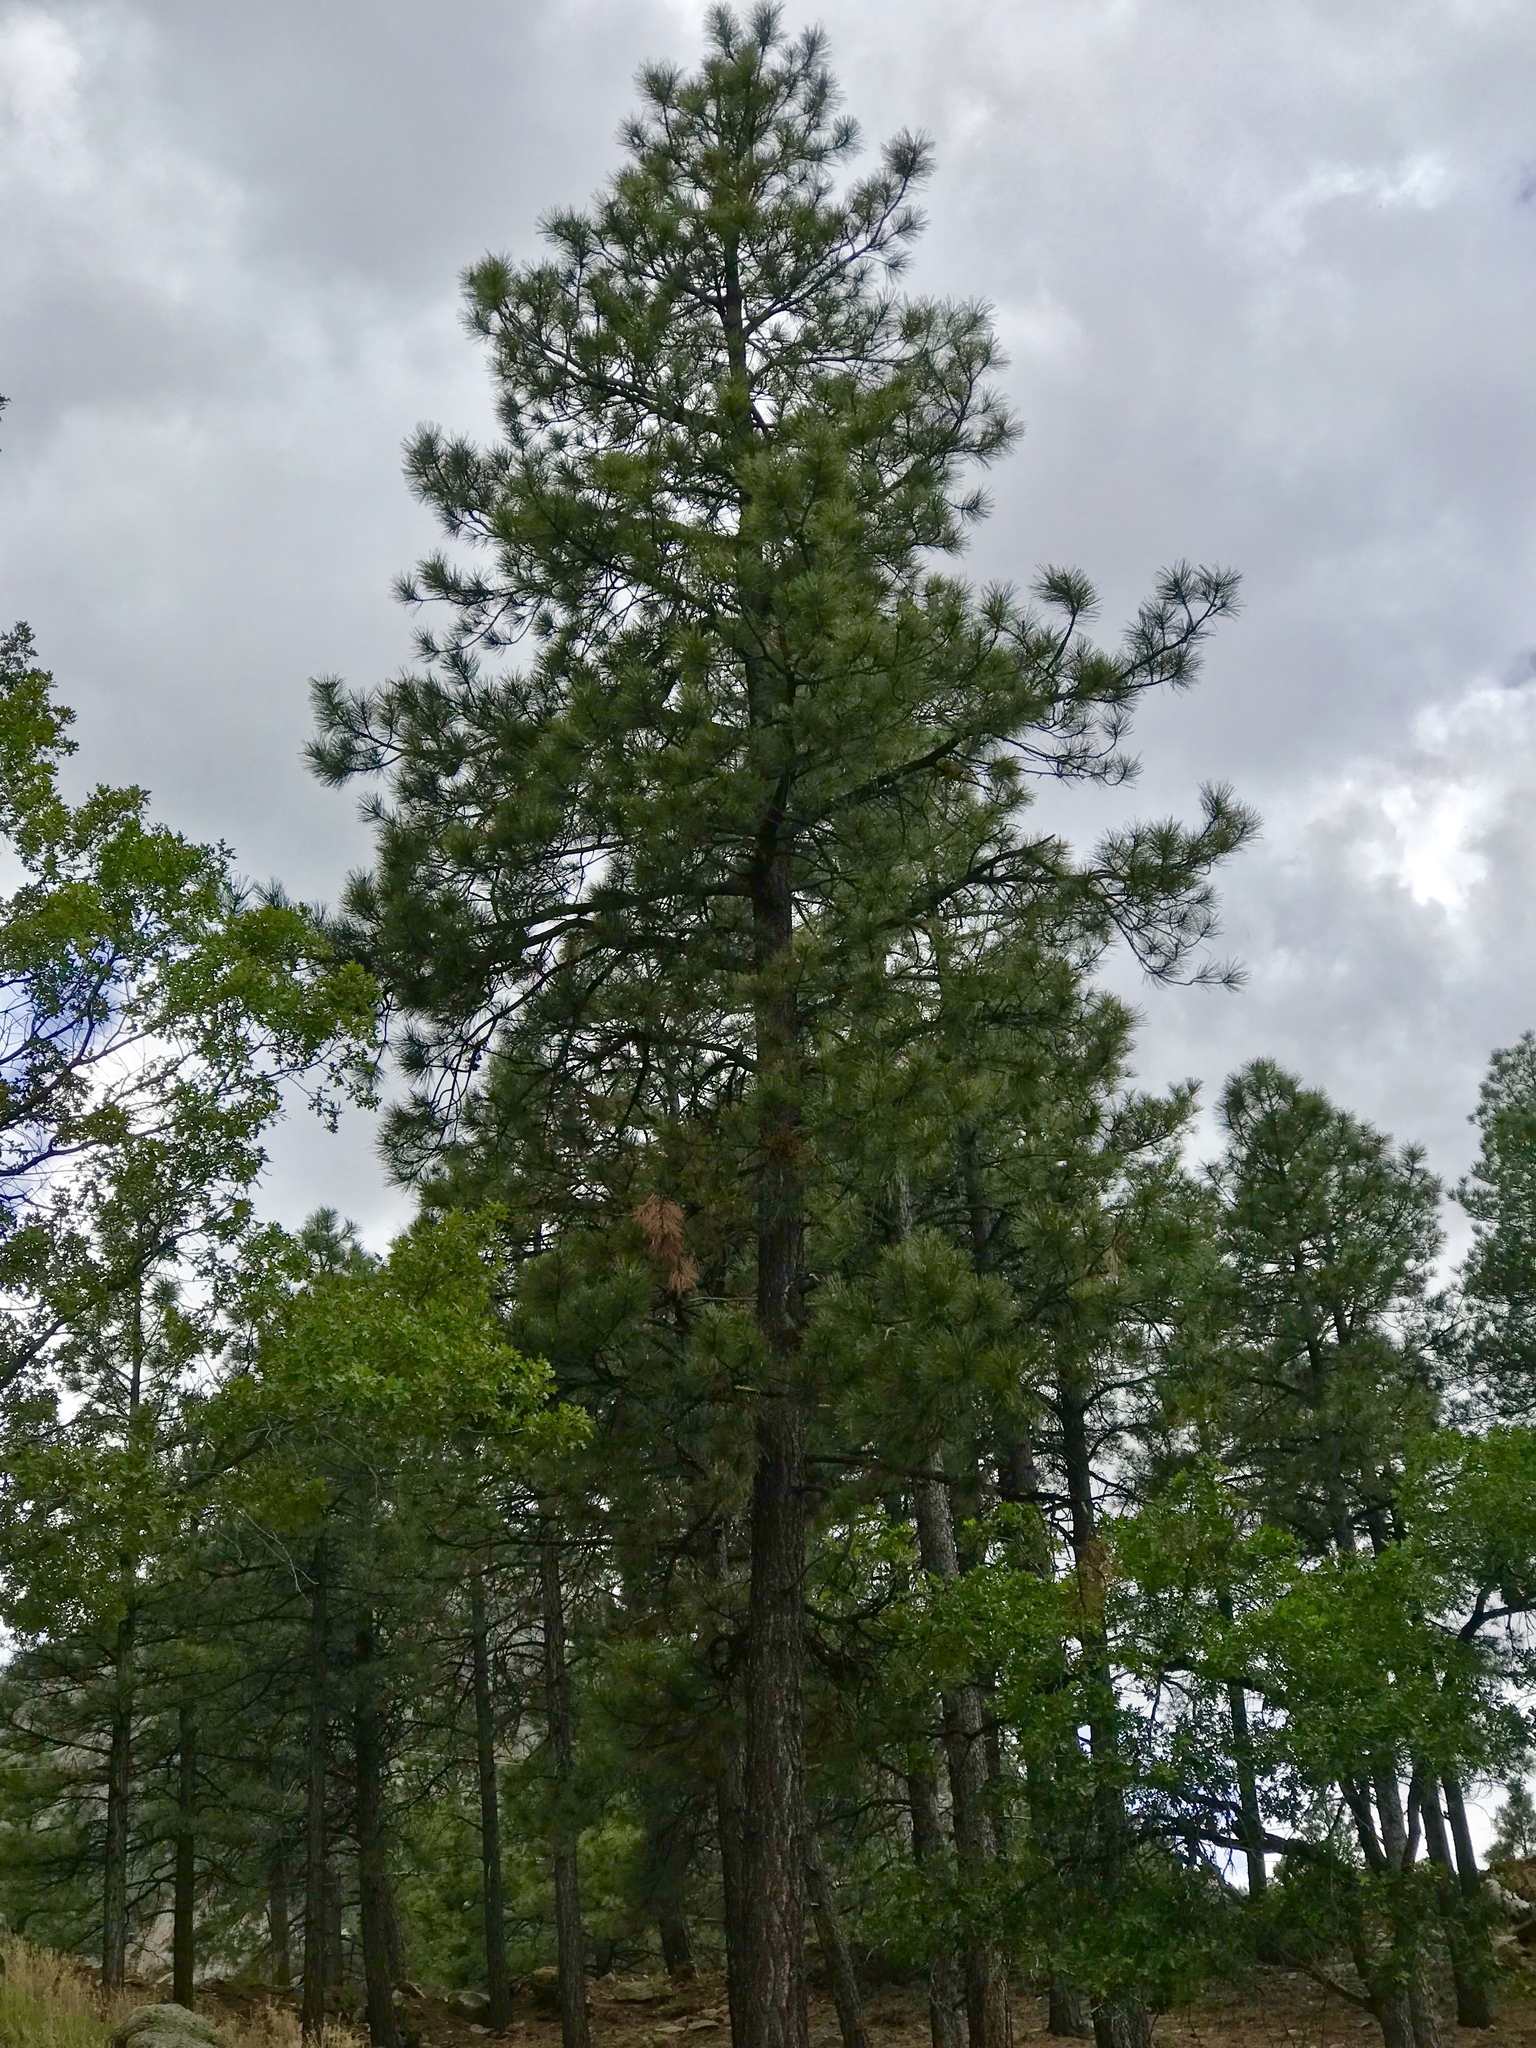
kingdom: Plantae
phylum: Tracheophyta
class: Pinopsida
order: Pinales
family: Pinaceae
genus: Pinus
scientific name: Pinus ponderosa
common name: Western yellow-pine
